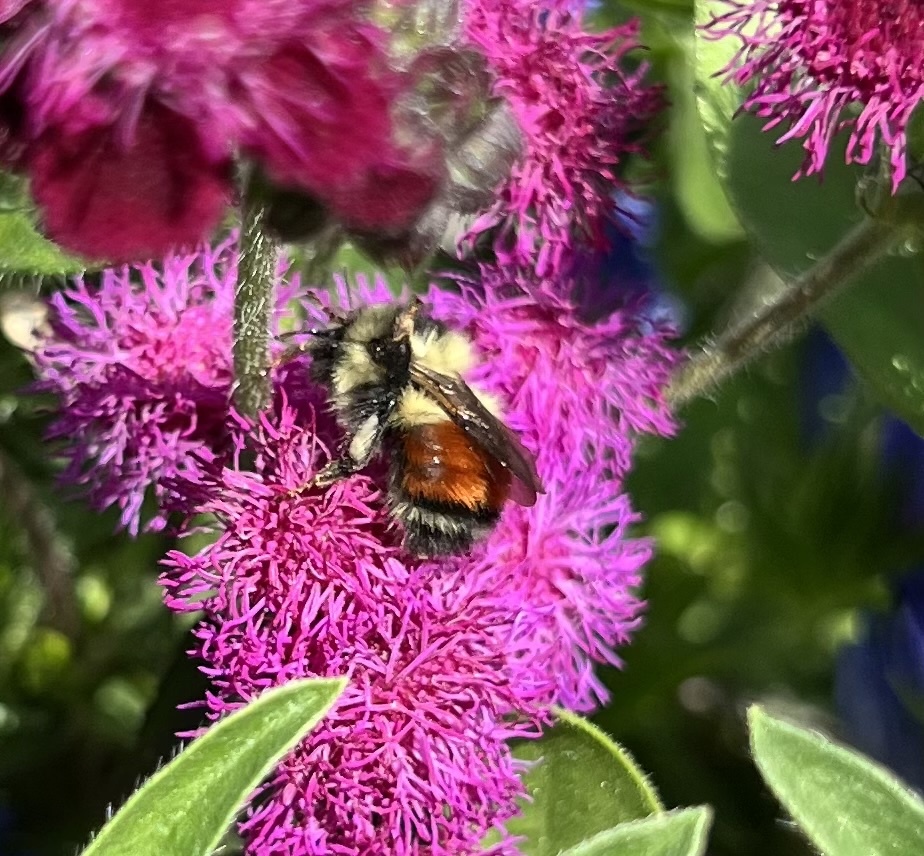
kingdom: Animalia
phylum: Arthropoda
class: Insecta
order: Hymenoptera
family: Apidae
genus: Bombus
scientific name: Bombus melanopygus
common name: Black tail bumble bee
